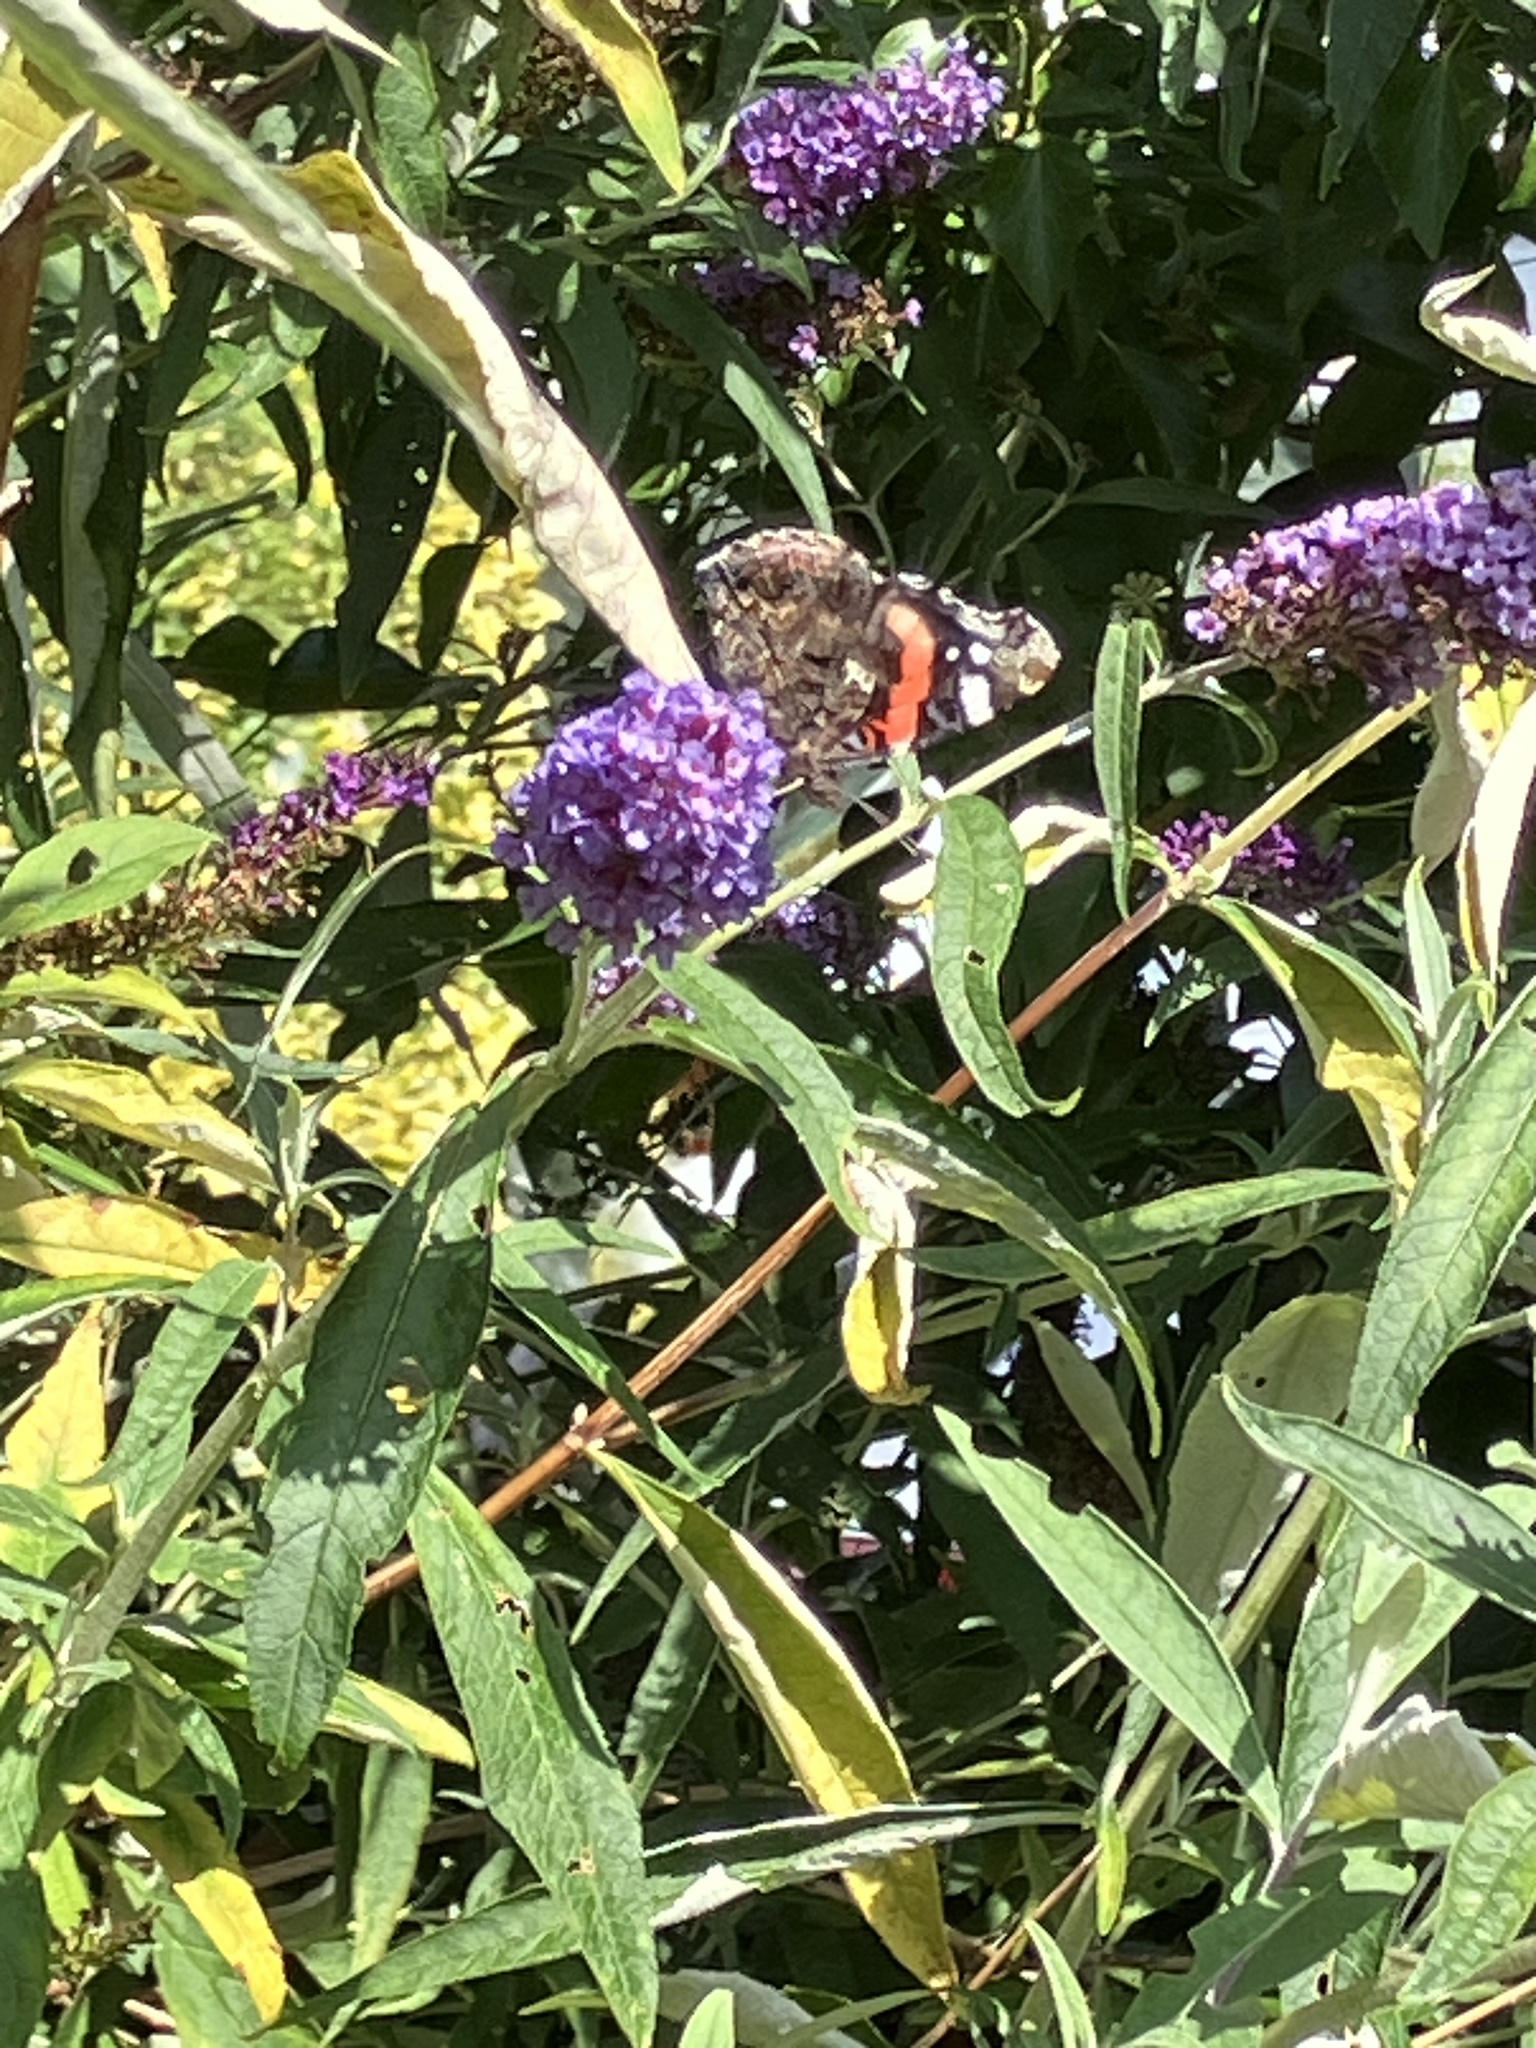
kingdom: Animalia
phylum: Arthropoda
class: Insecta
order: Lepidoptera
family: Nymphalidae
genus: Vanessa
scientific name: Vanessa atalanta
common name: Red admiral
